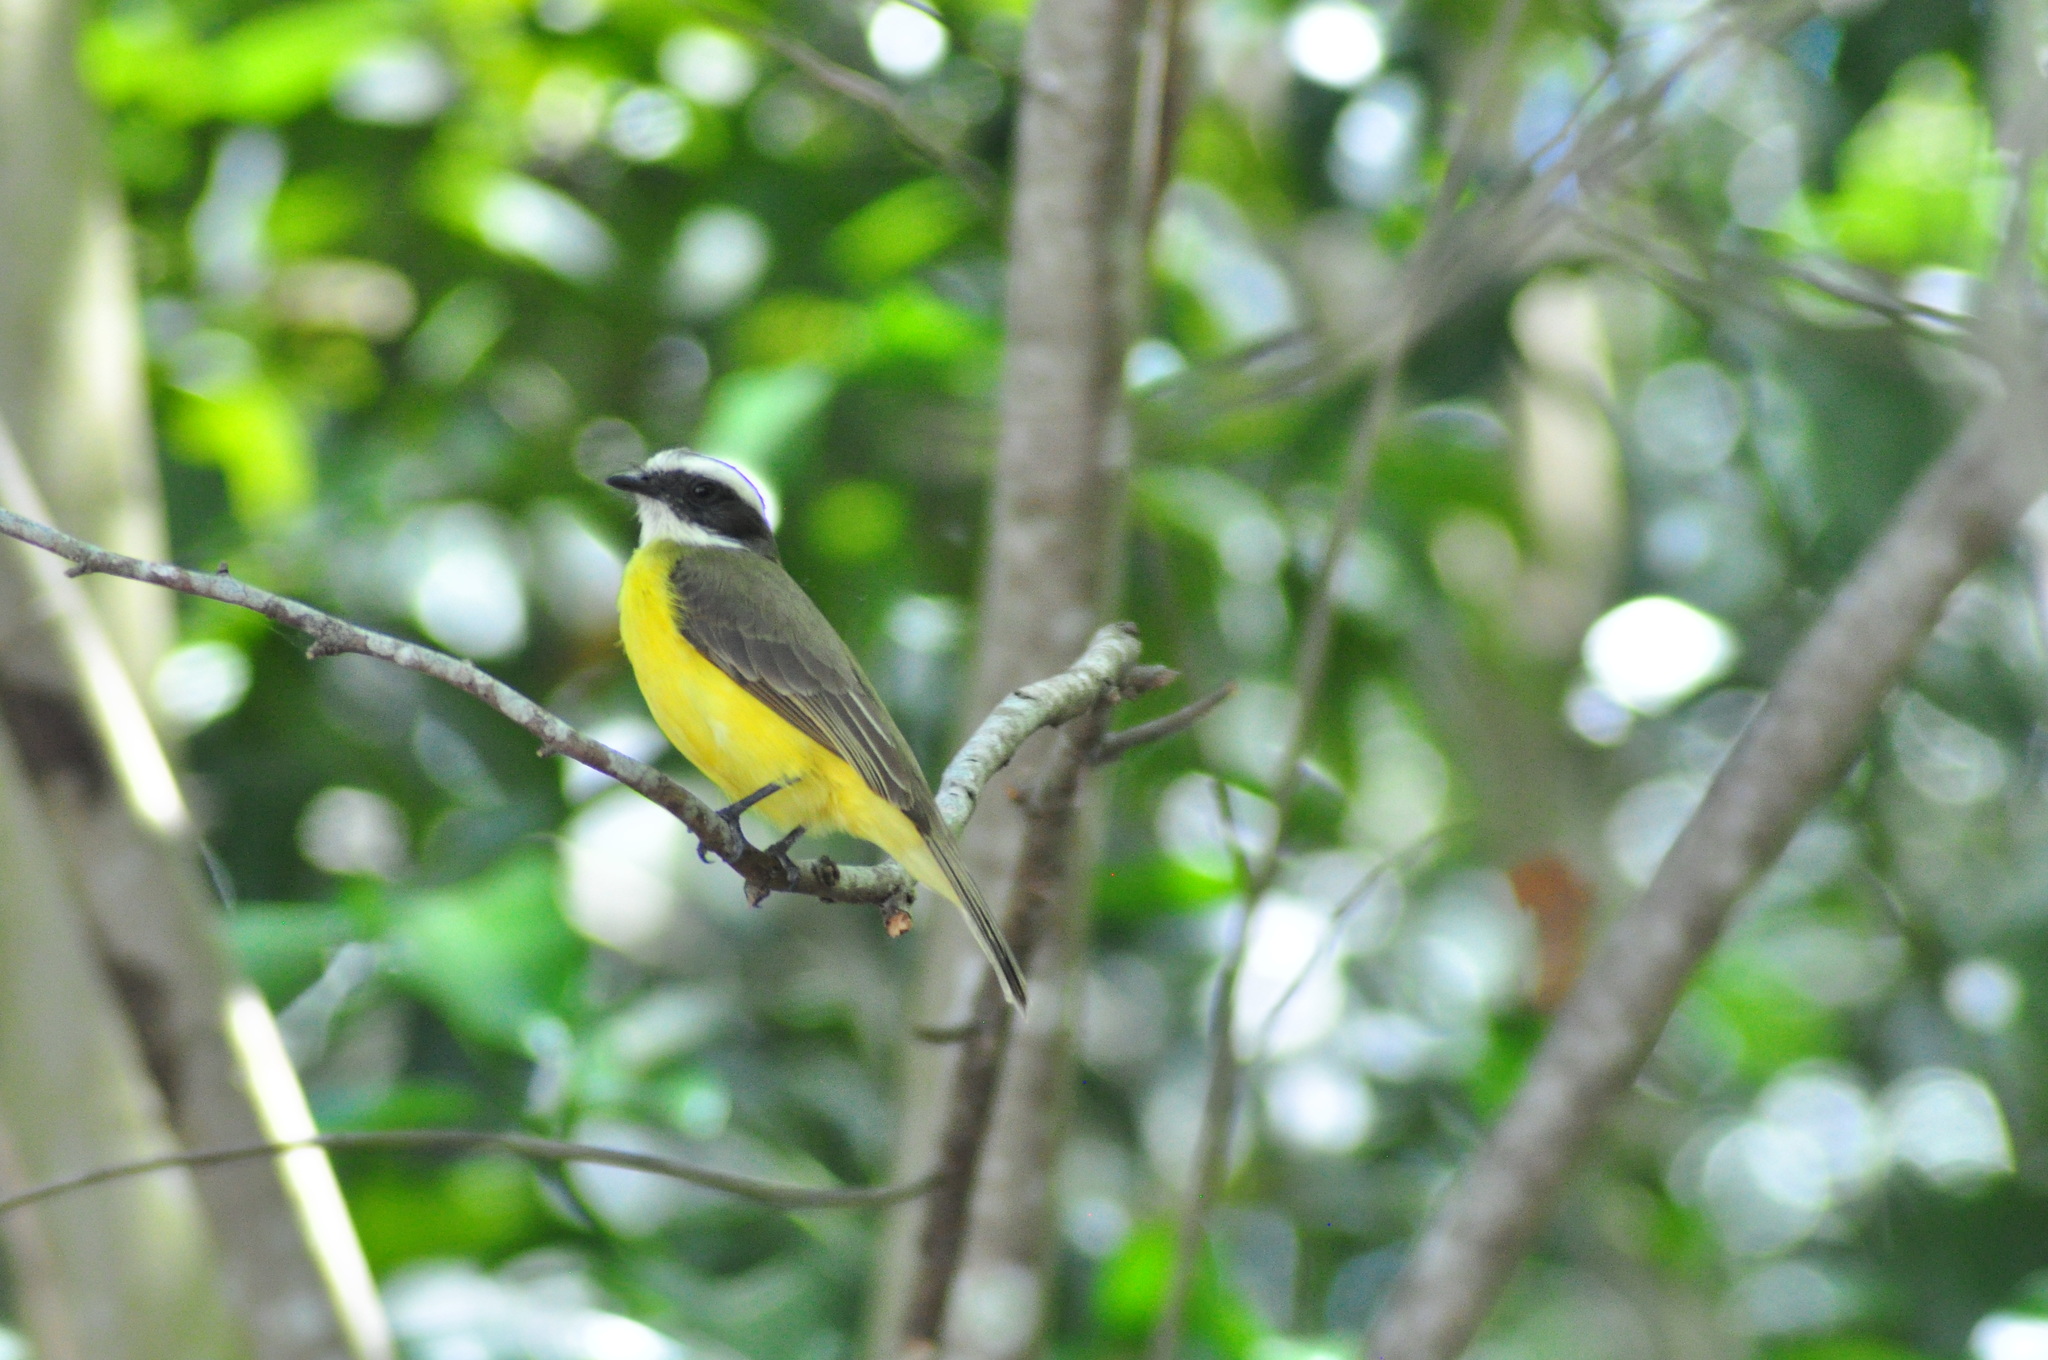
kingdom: Animalia
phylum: Chordata
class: Aves
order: Passeriformes
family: Tyrannidae
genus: Myiozetetes
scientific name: Myiozetetes similis
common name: Social flycatcher
